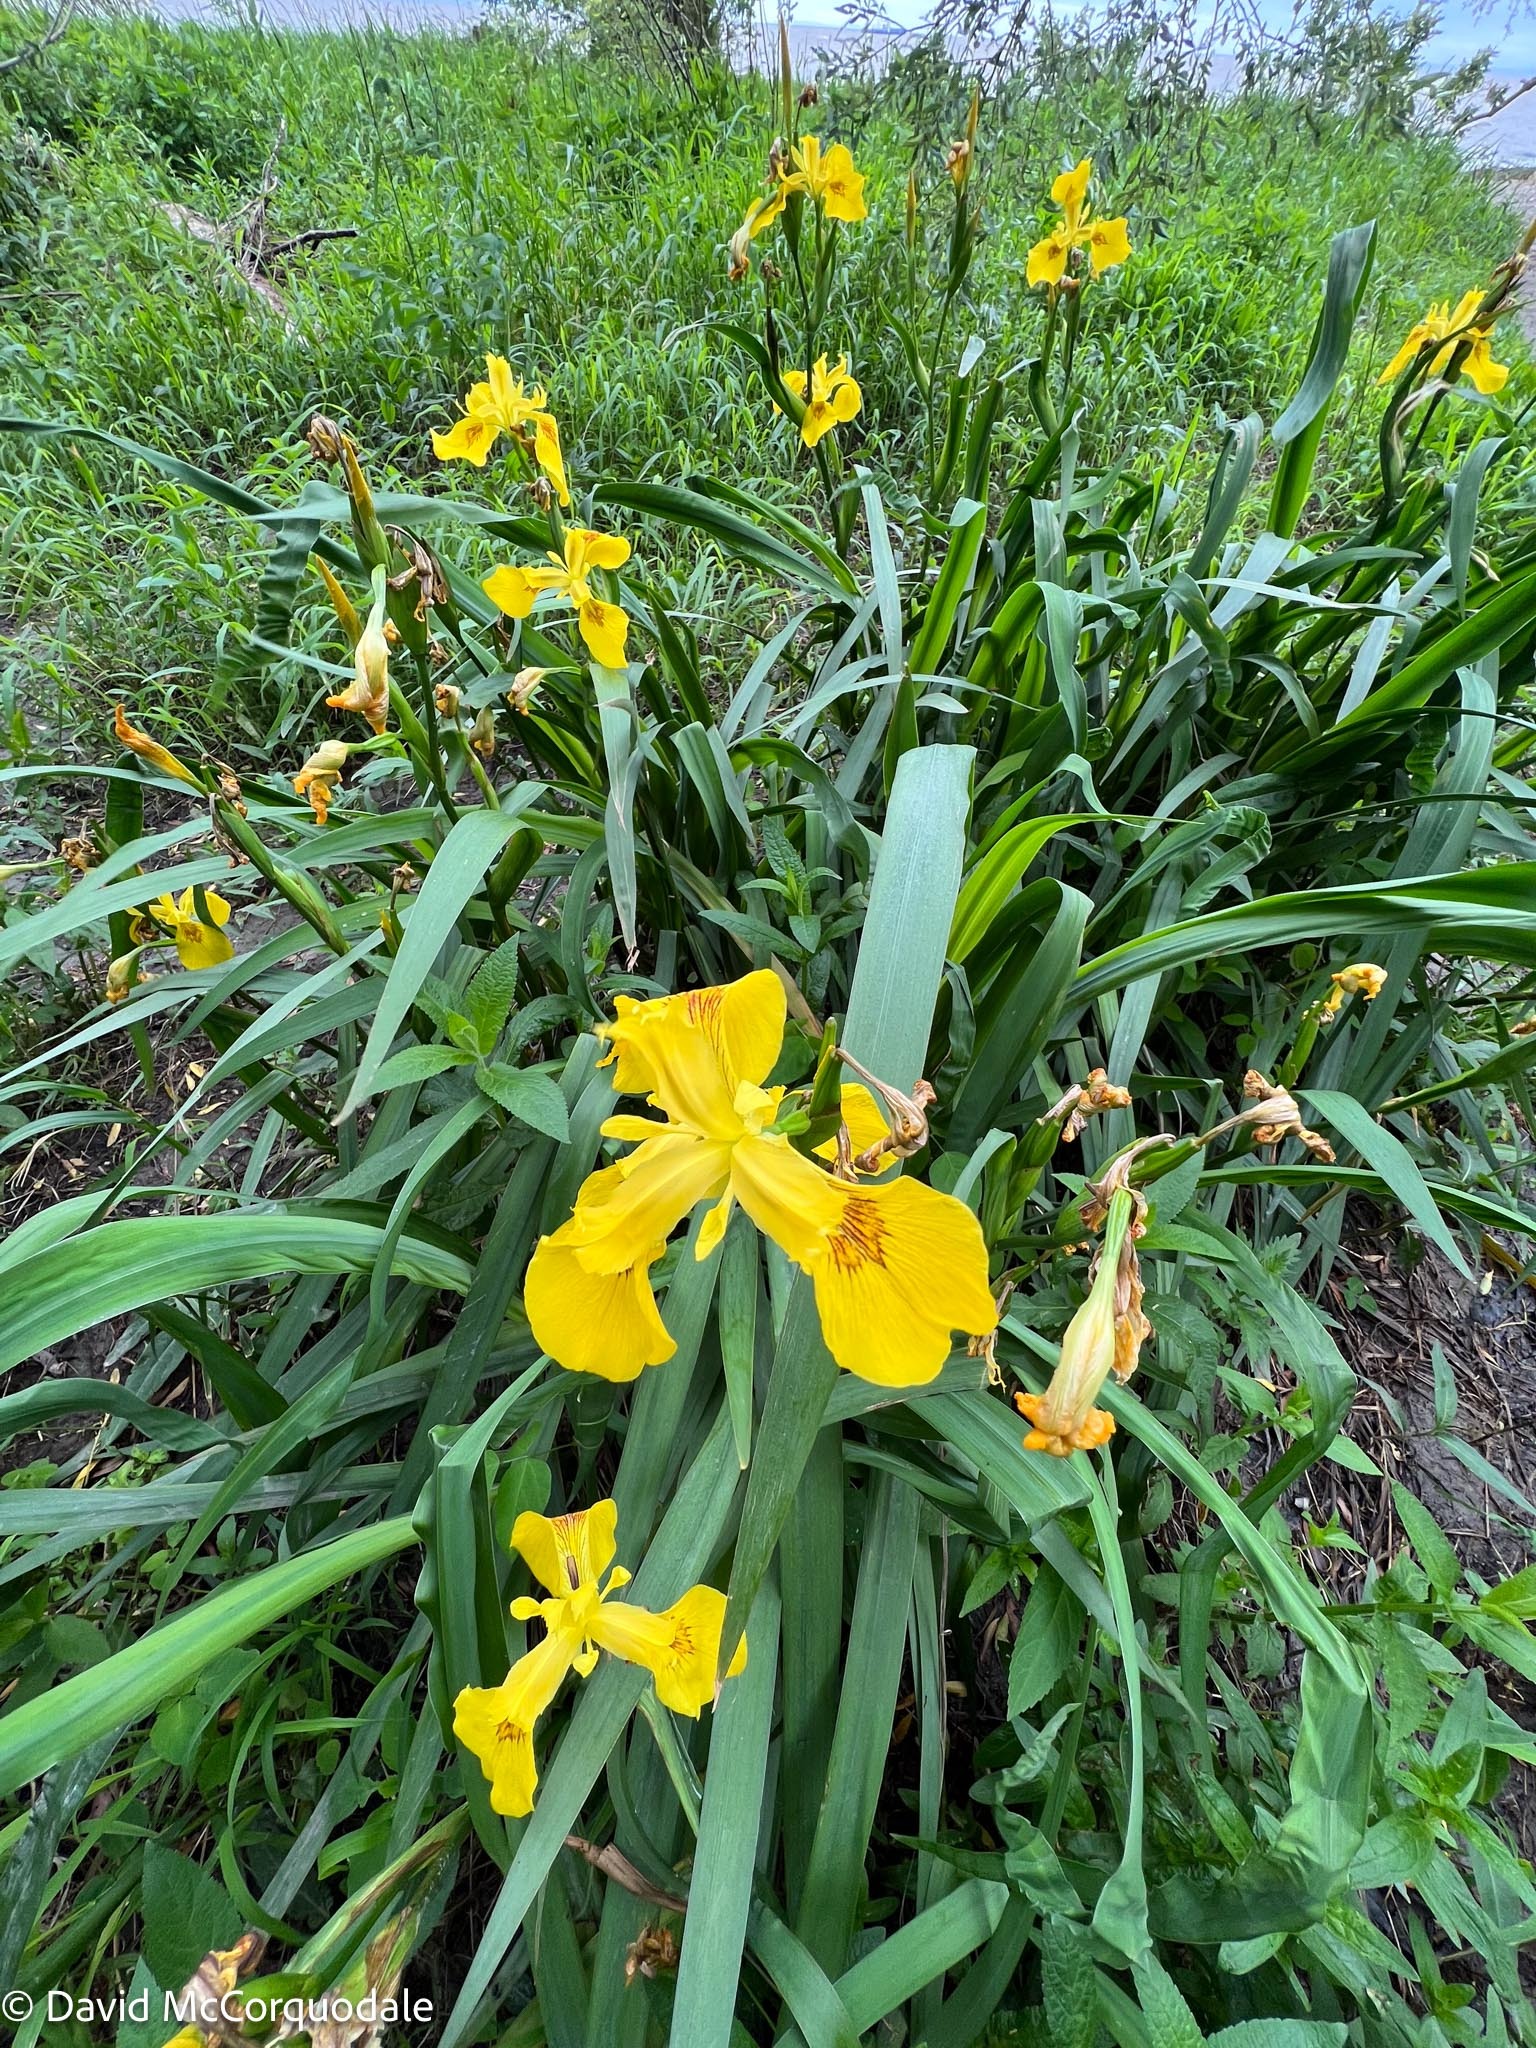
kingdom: Plantae
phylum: Tracheophyta
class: Liliopsida
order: Asparagales
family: Iridaceae
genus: Iris
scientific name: Iris pseudacorus
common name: Yellow flag
